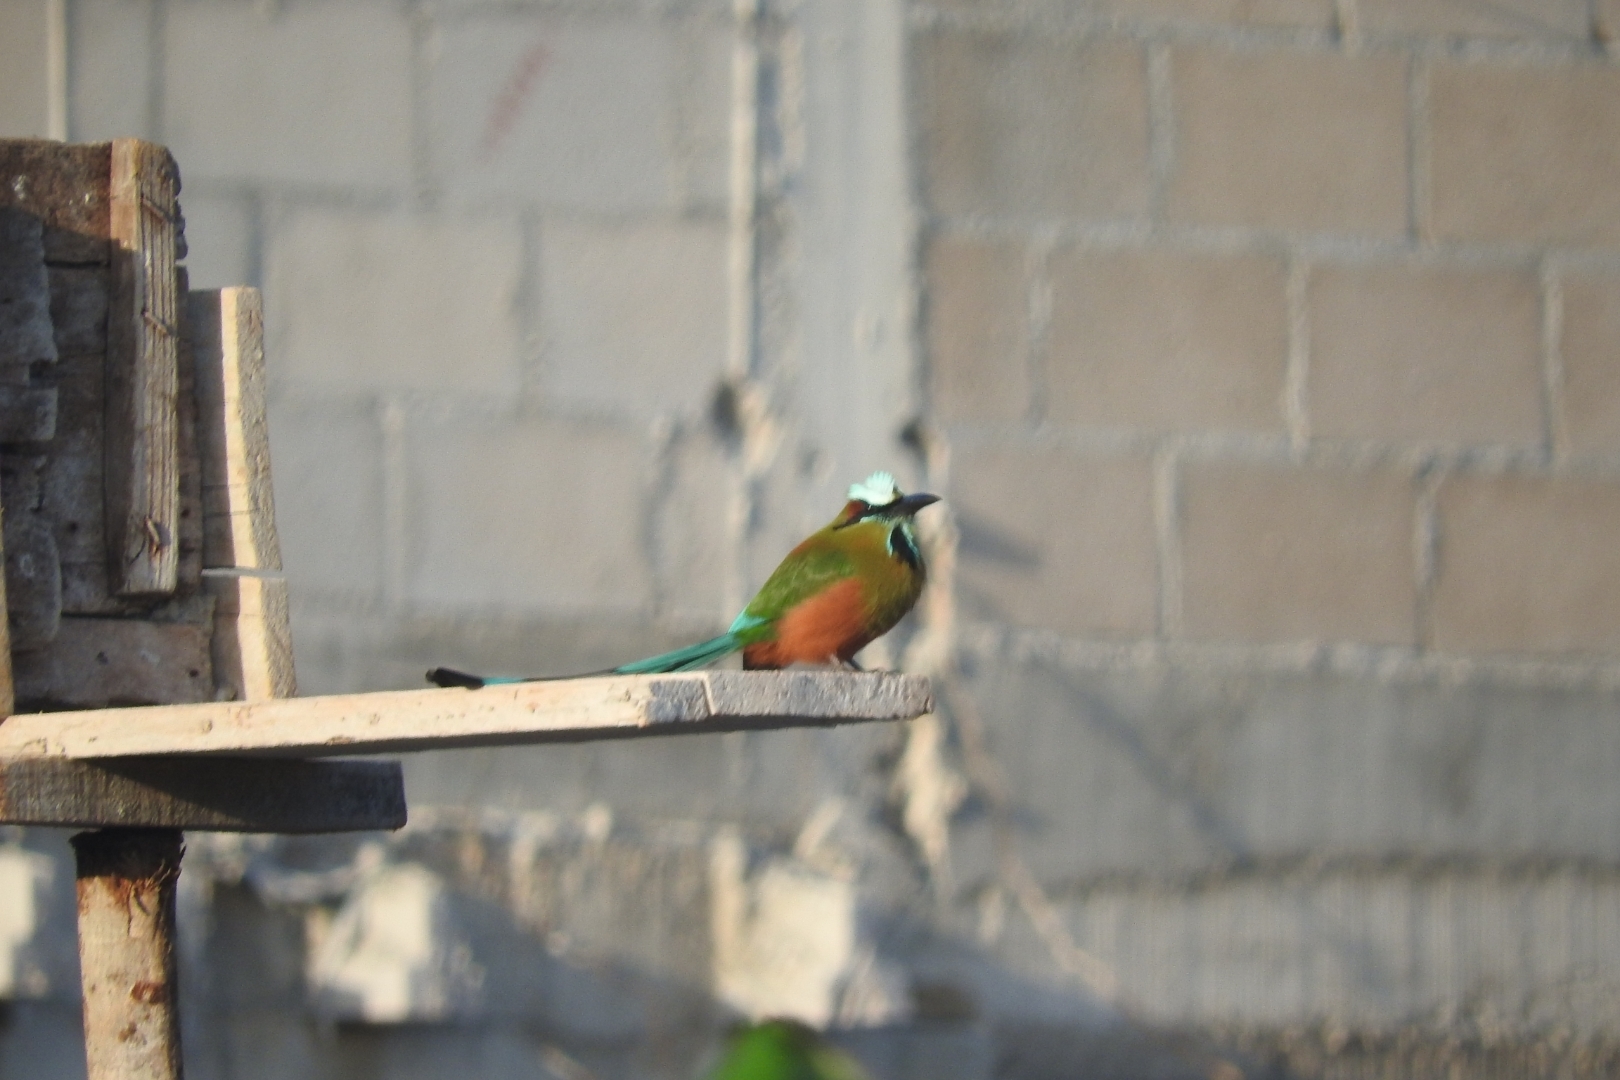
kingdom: Animalia
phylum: Chordata
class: Aves
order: Coraciiformes
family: Momotidae
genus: Eumomota
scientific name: Eumomota superciliosa
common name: Turquoise-browed motmot
